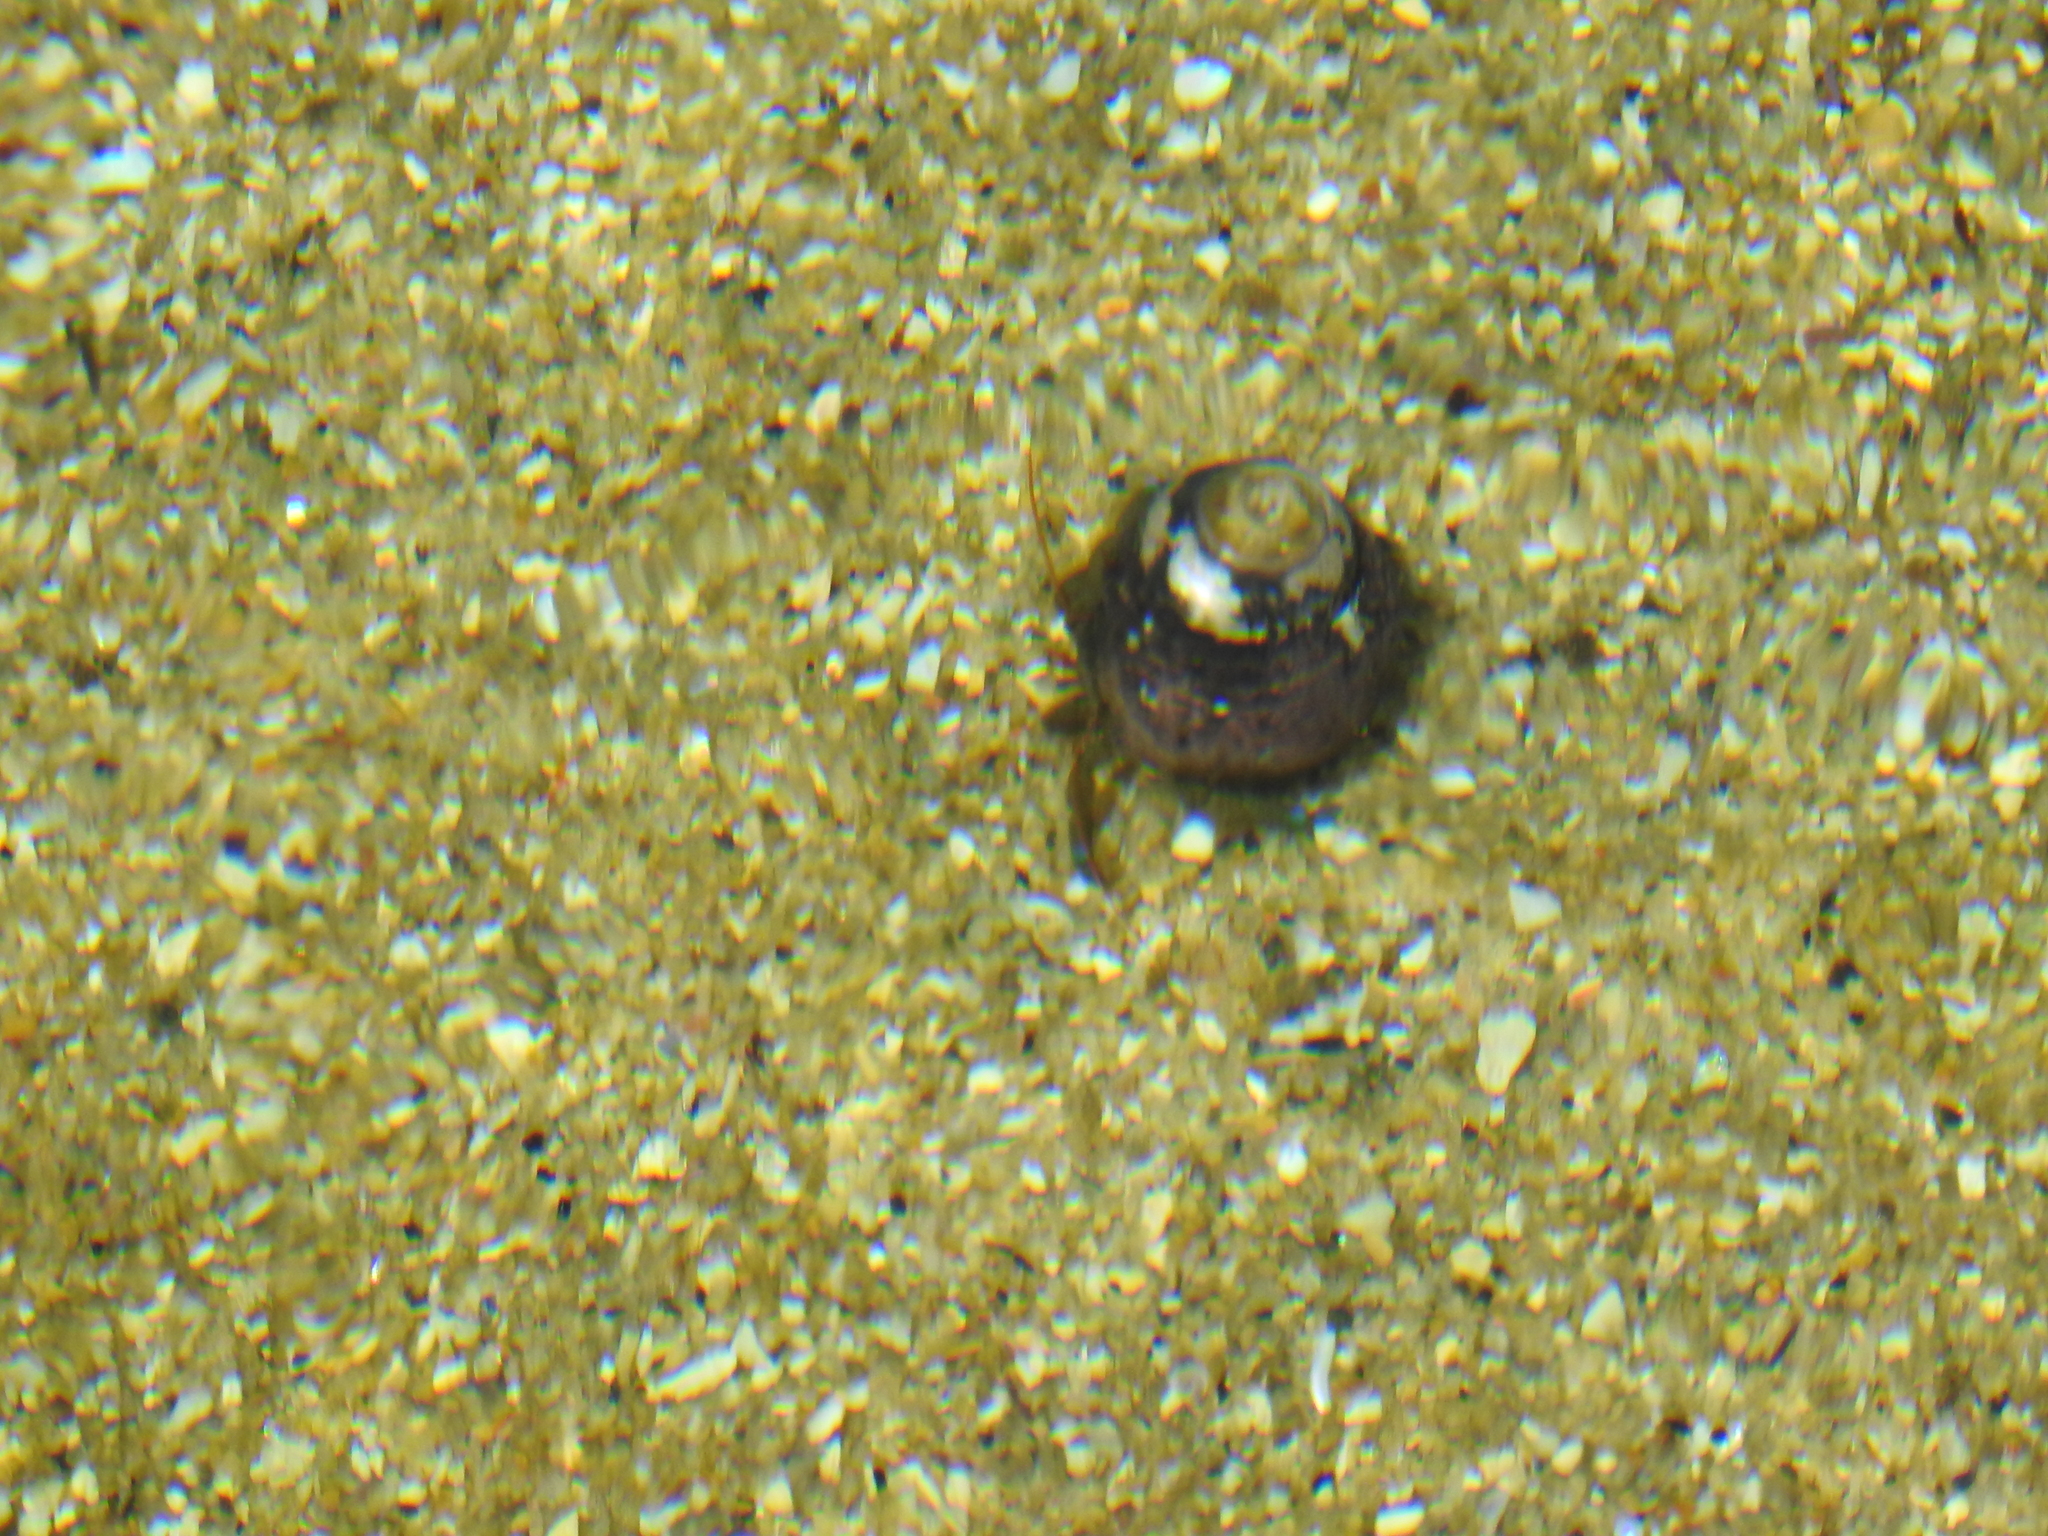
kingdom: Animalia
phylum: Arthropoda
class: Malacostraca
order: Decapoda
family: Paguridae
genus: Pagurus
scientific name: Pagurus samuelis
